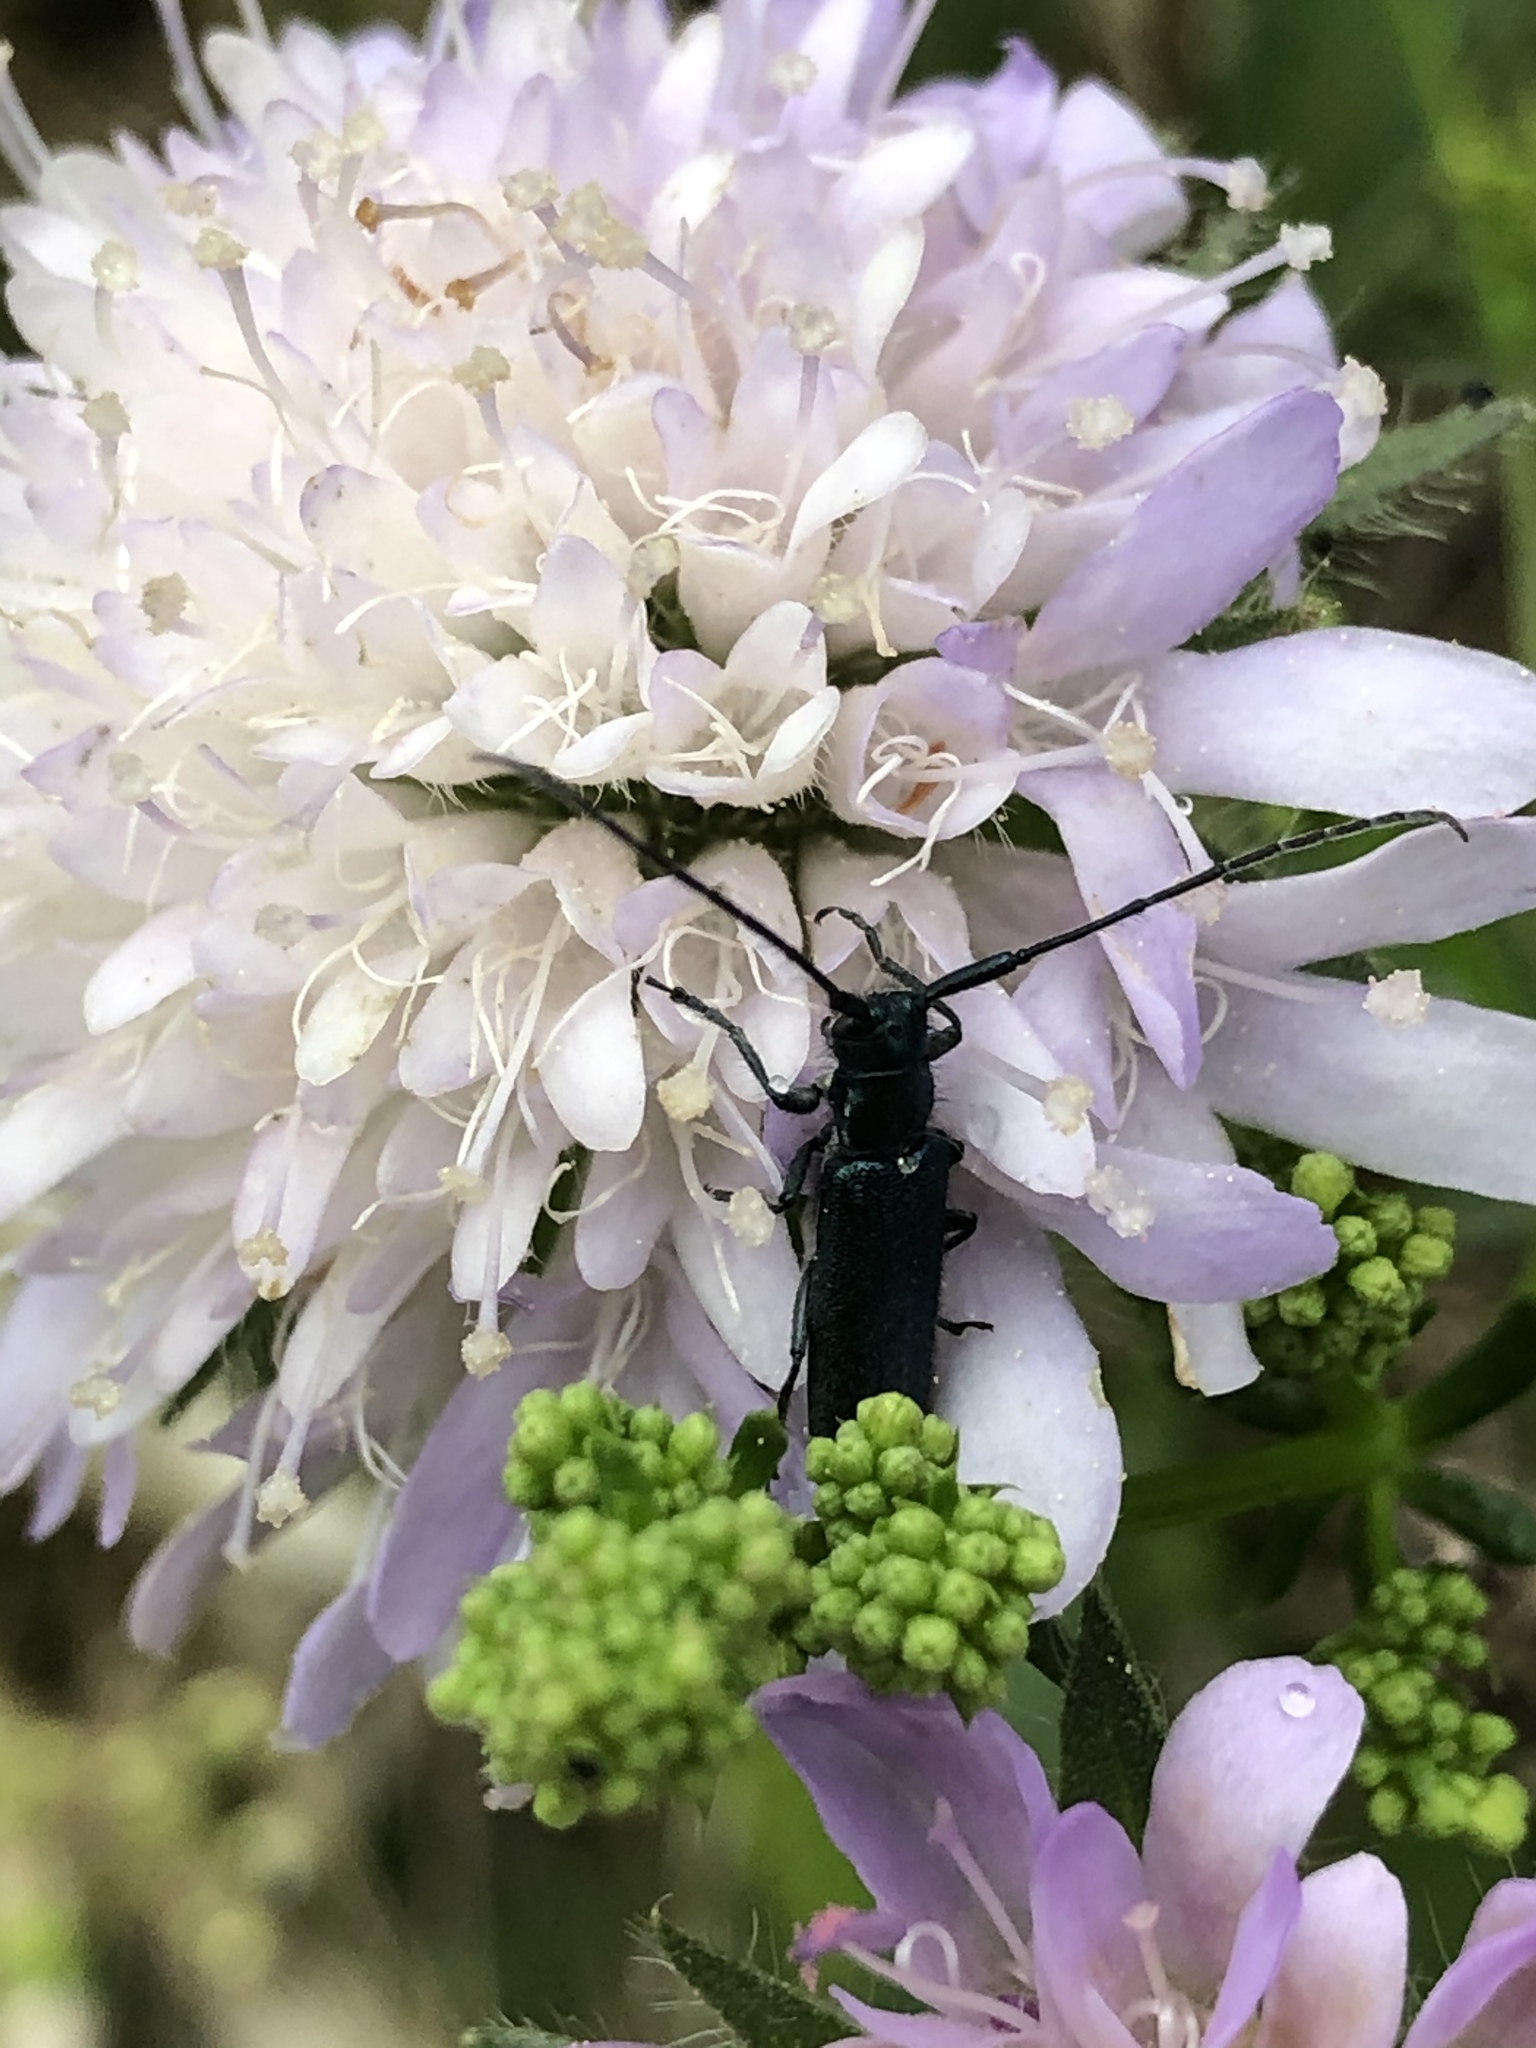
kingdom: Animalia
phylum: Arthropoda
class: Insecta
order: Coleoptera
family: Cerambycidae
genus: Agapanthia
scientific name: Agapanthia intermedia
